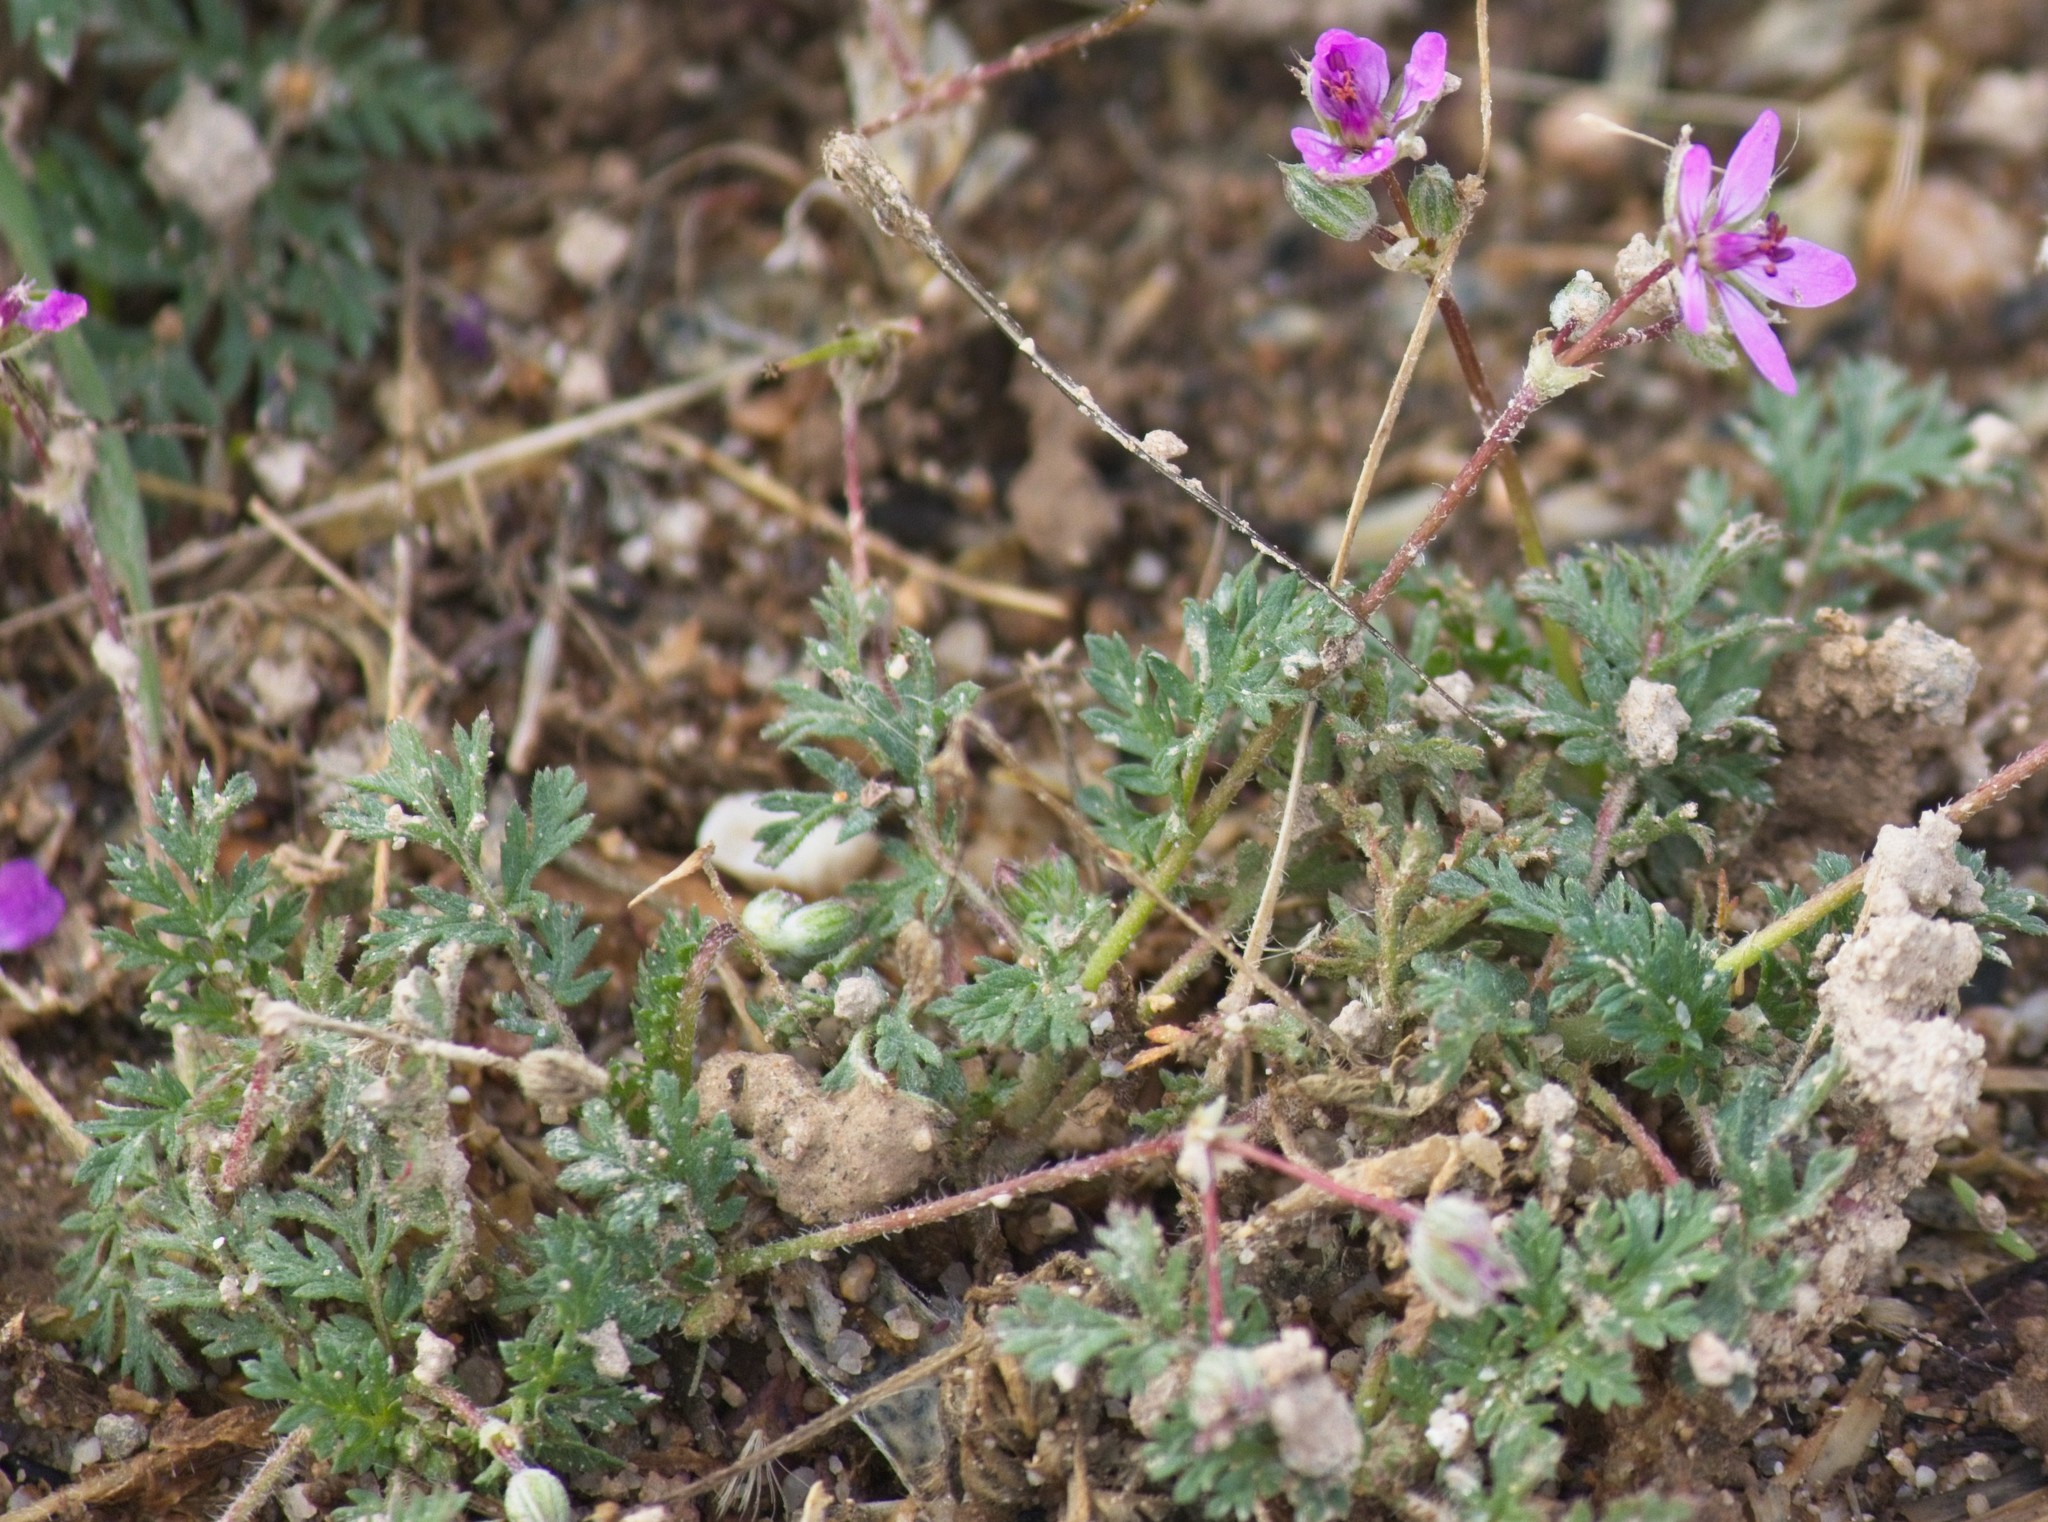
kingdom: Plantae
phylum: Tracheophyta
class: Magnoliopsida
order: Geraniales
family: Geraniaceae
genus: Erodium
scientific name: Erodium cicutarium
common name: Common stork's-bill
